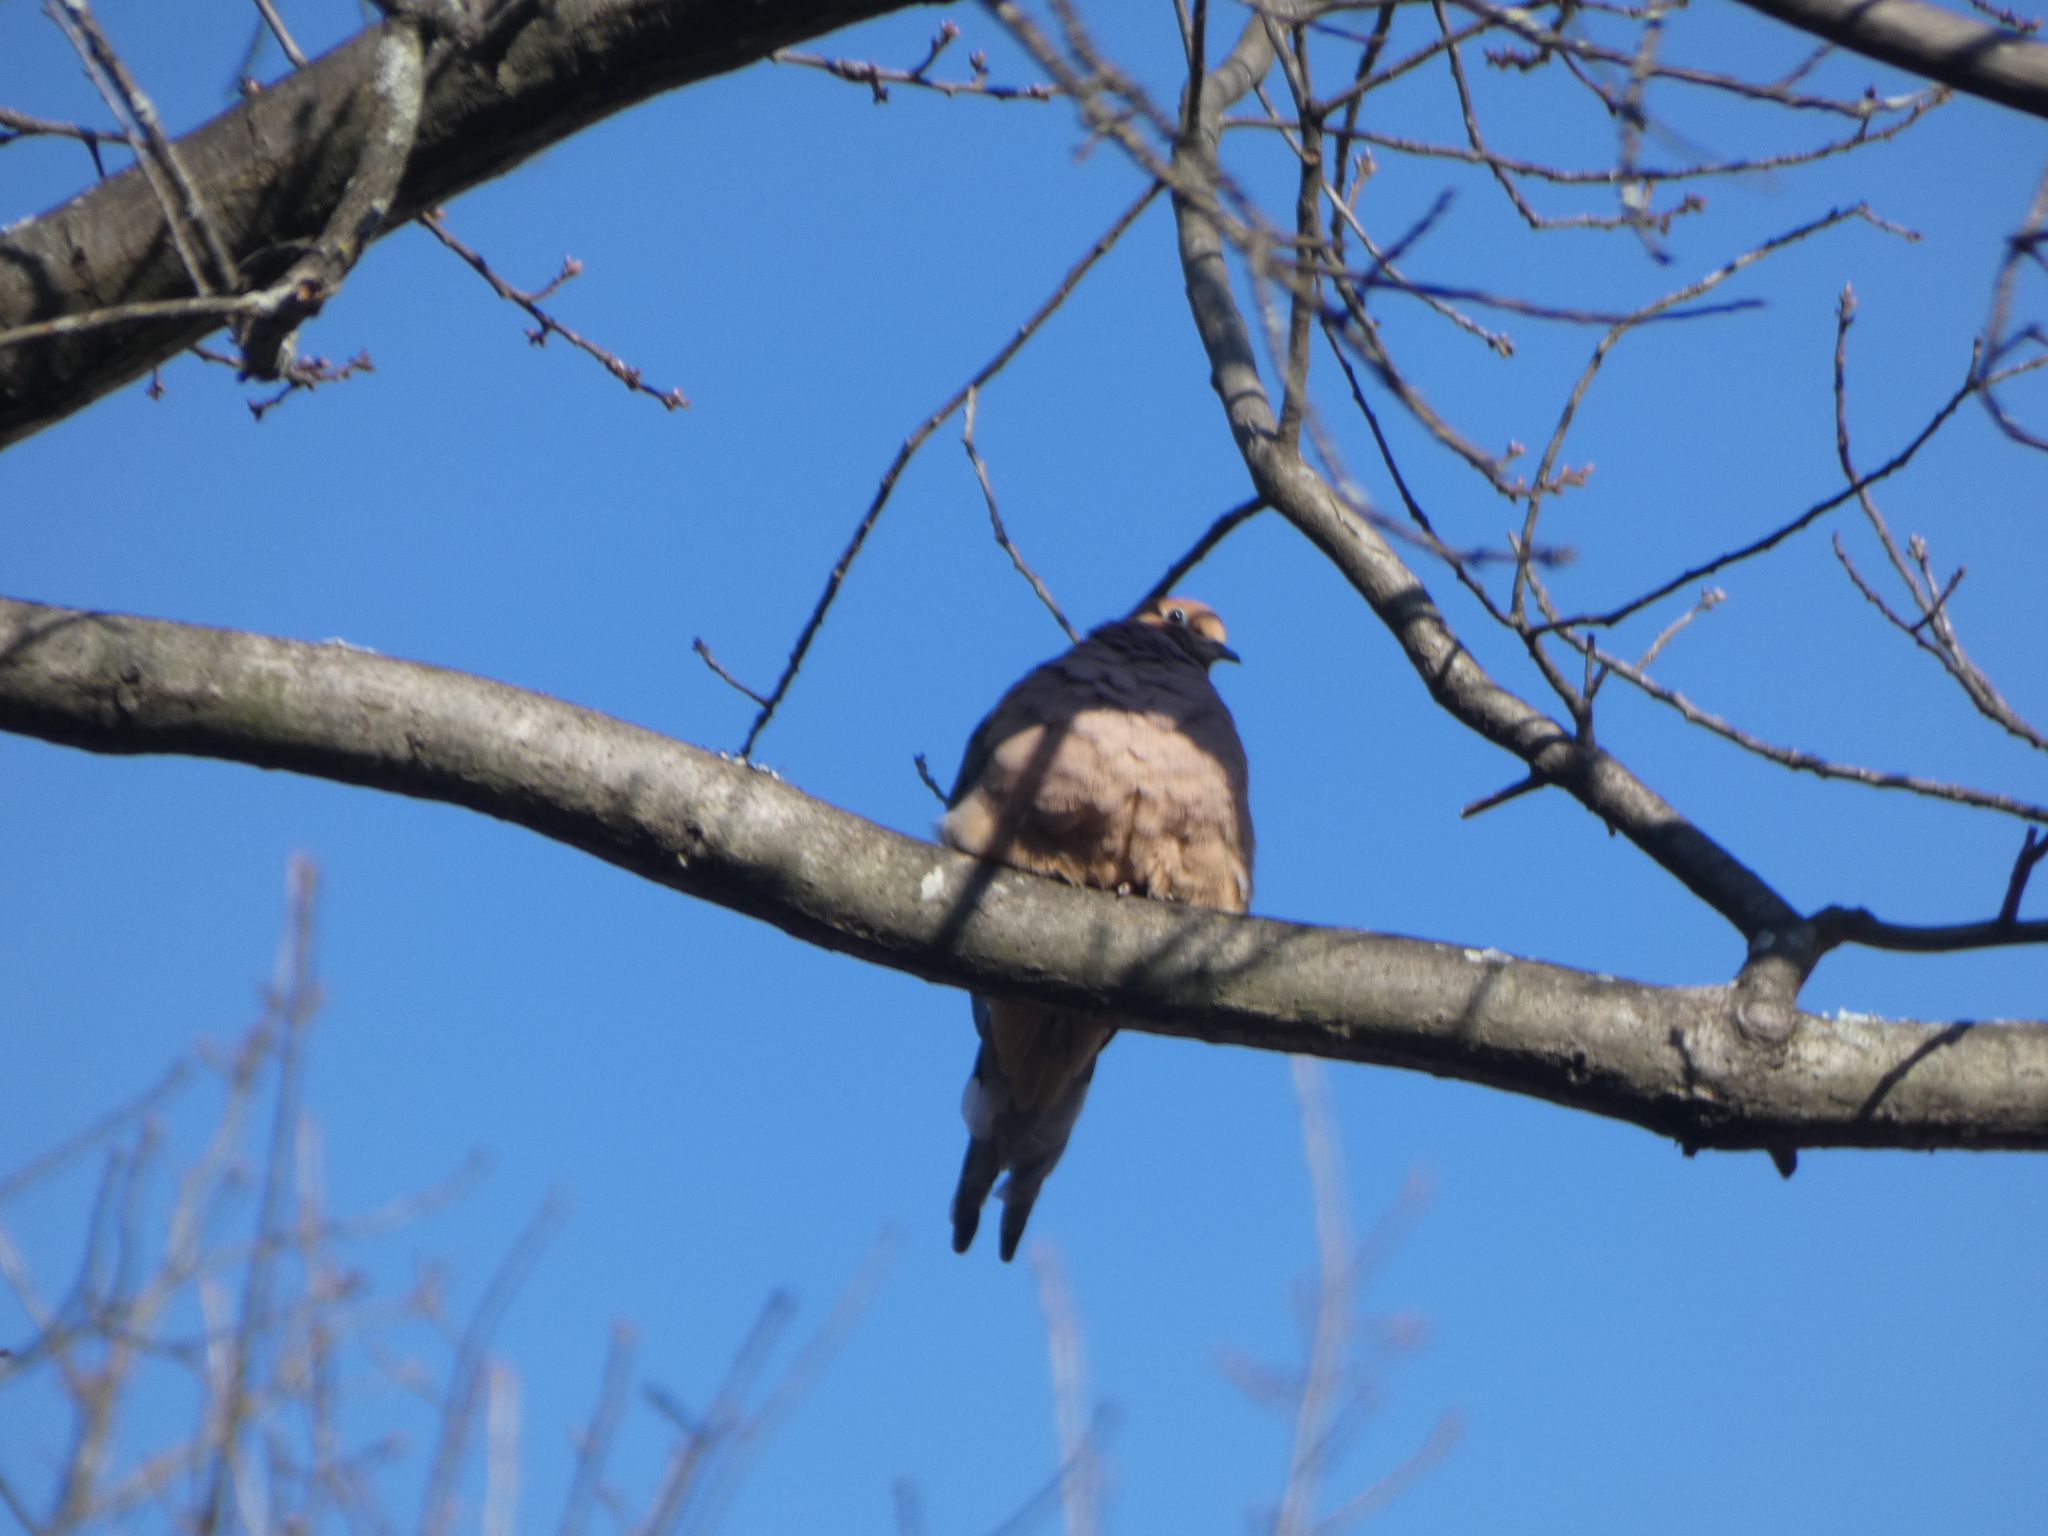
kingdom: Animalia
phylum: Chordata
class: Aves
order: Columbiformes
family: Columbidae
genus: Zenaida
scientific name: Zenaida macroura
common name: Mourning dove
